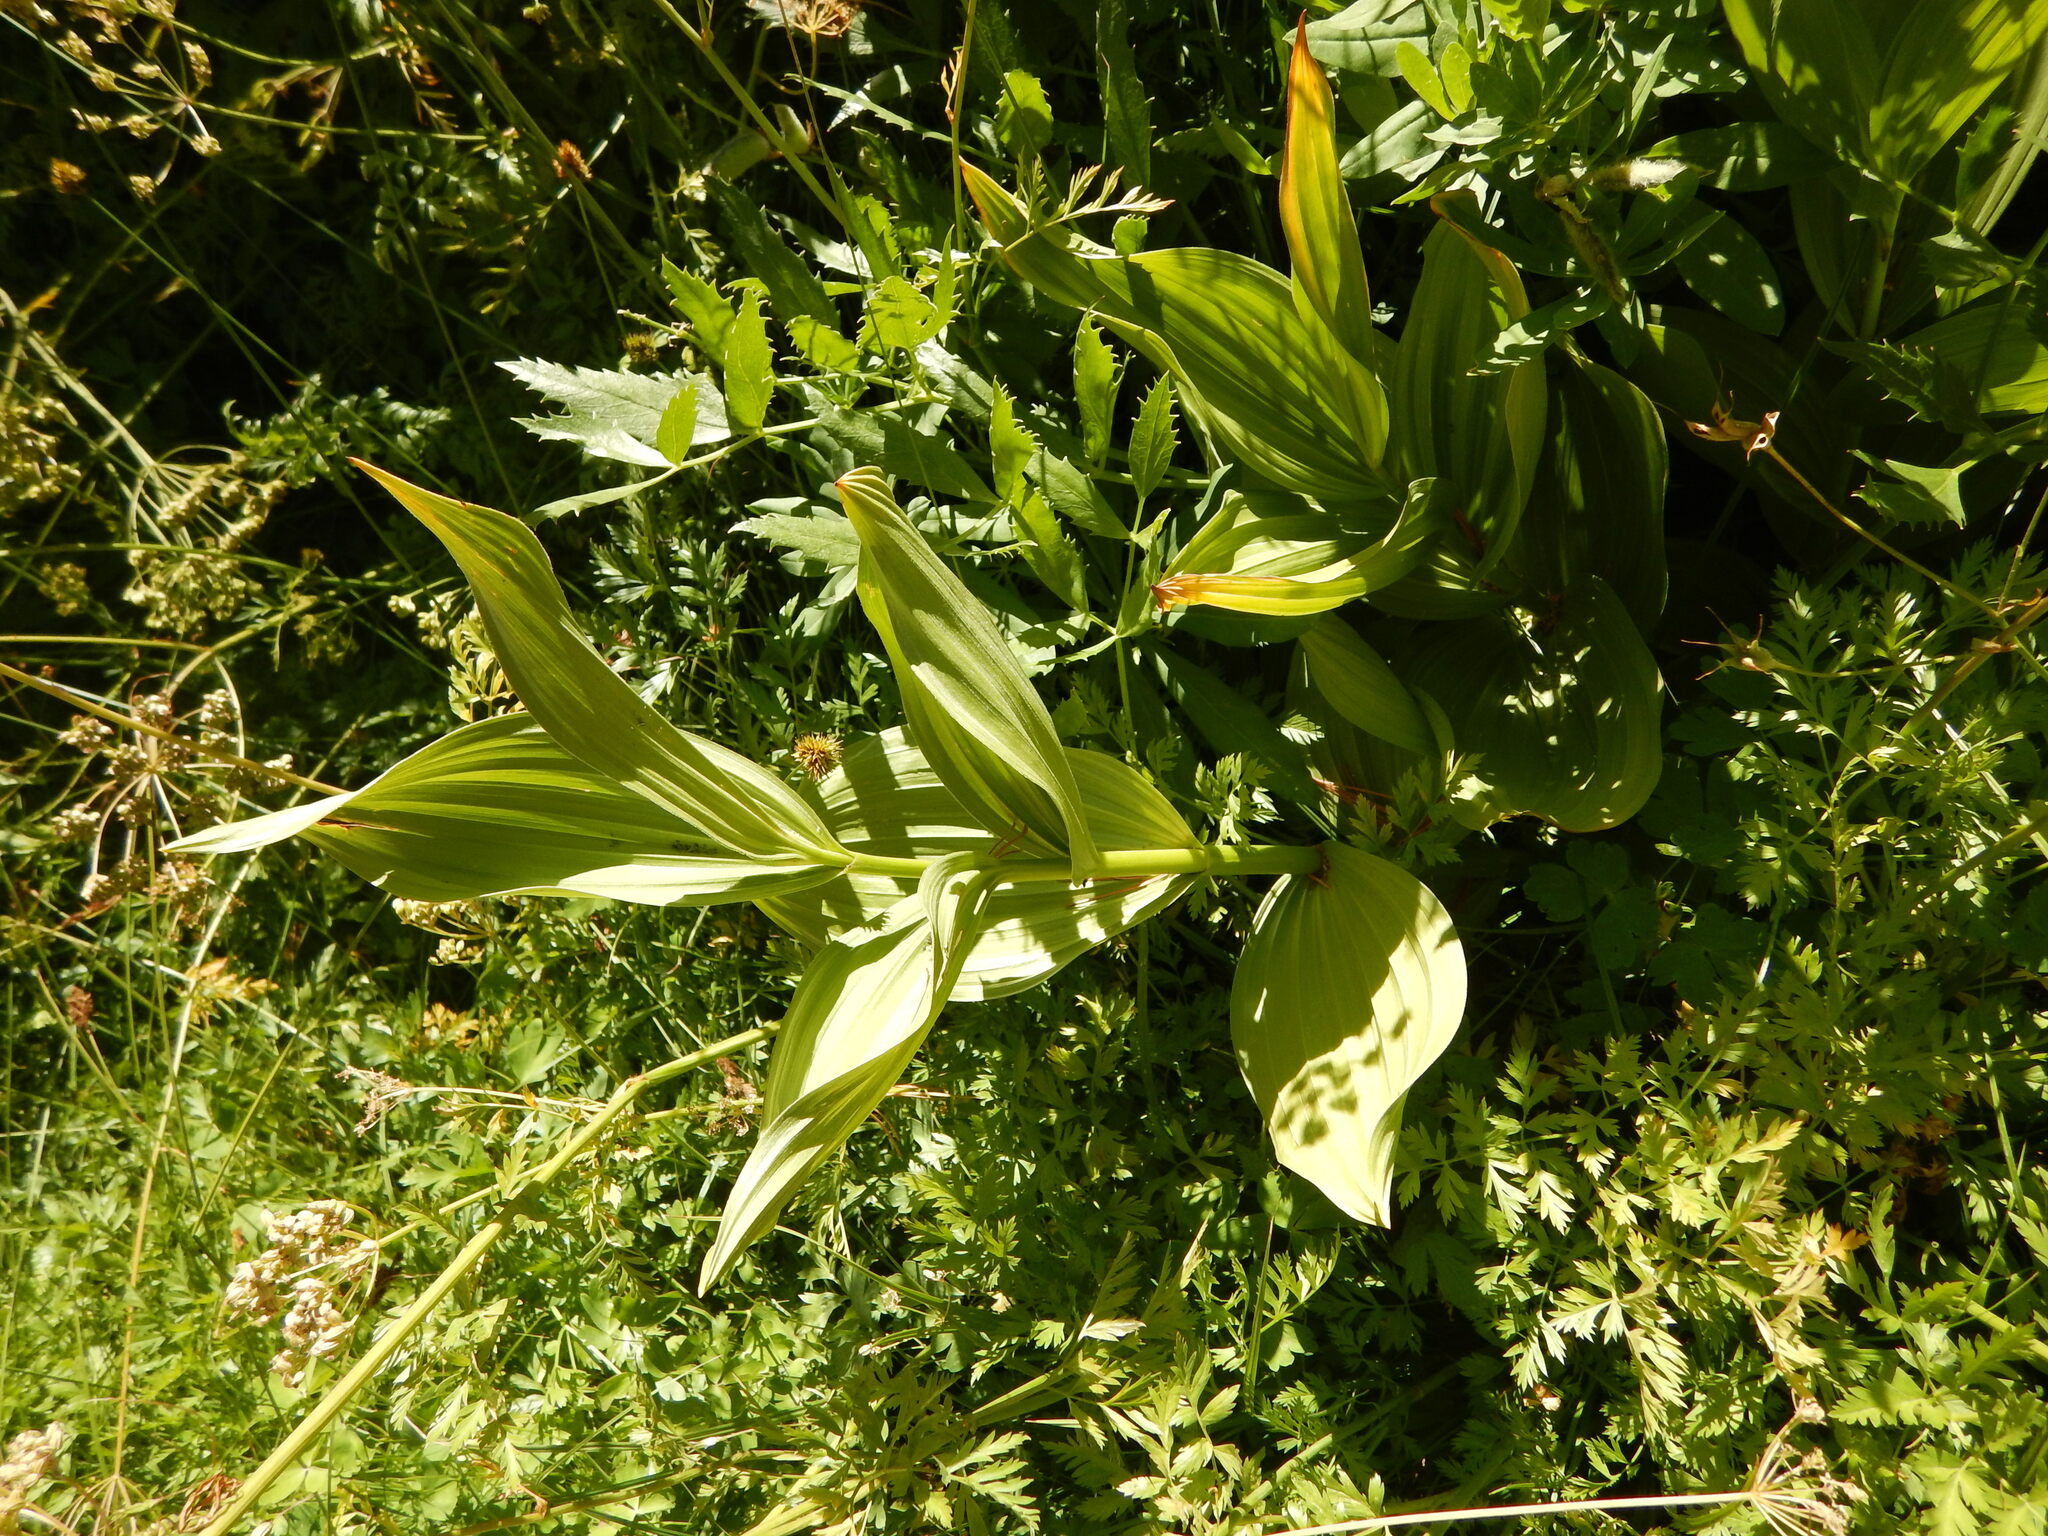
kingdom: Plantae
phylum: Tracheophyta
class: Liliopsida
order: Liliales
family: Melanthiaceae
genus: Veratrum
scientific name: Veratrum californicum
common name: California veratrum
